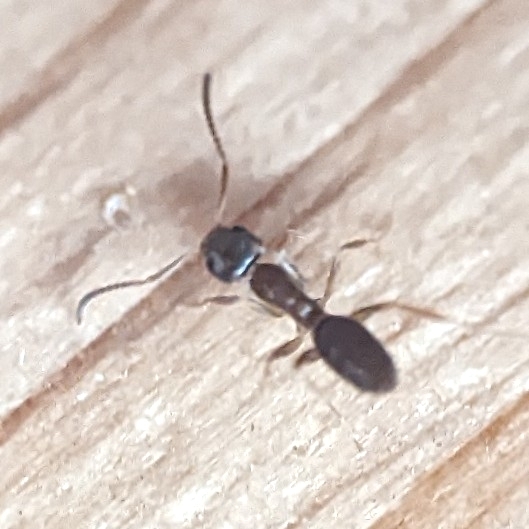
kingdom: Animalia
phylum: Arthropoda
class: Insecta
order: Hymenoptera
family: Formicidae
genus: Tapinoma
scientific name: Tapinoma sessile
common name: Odorous house ant
